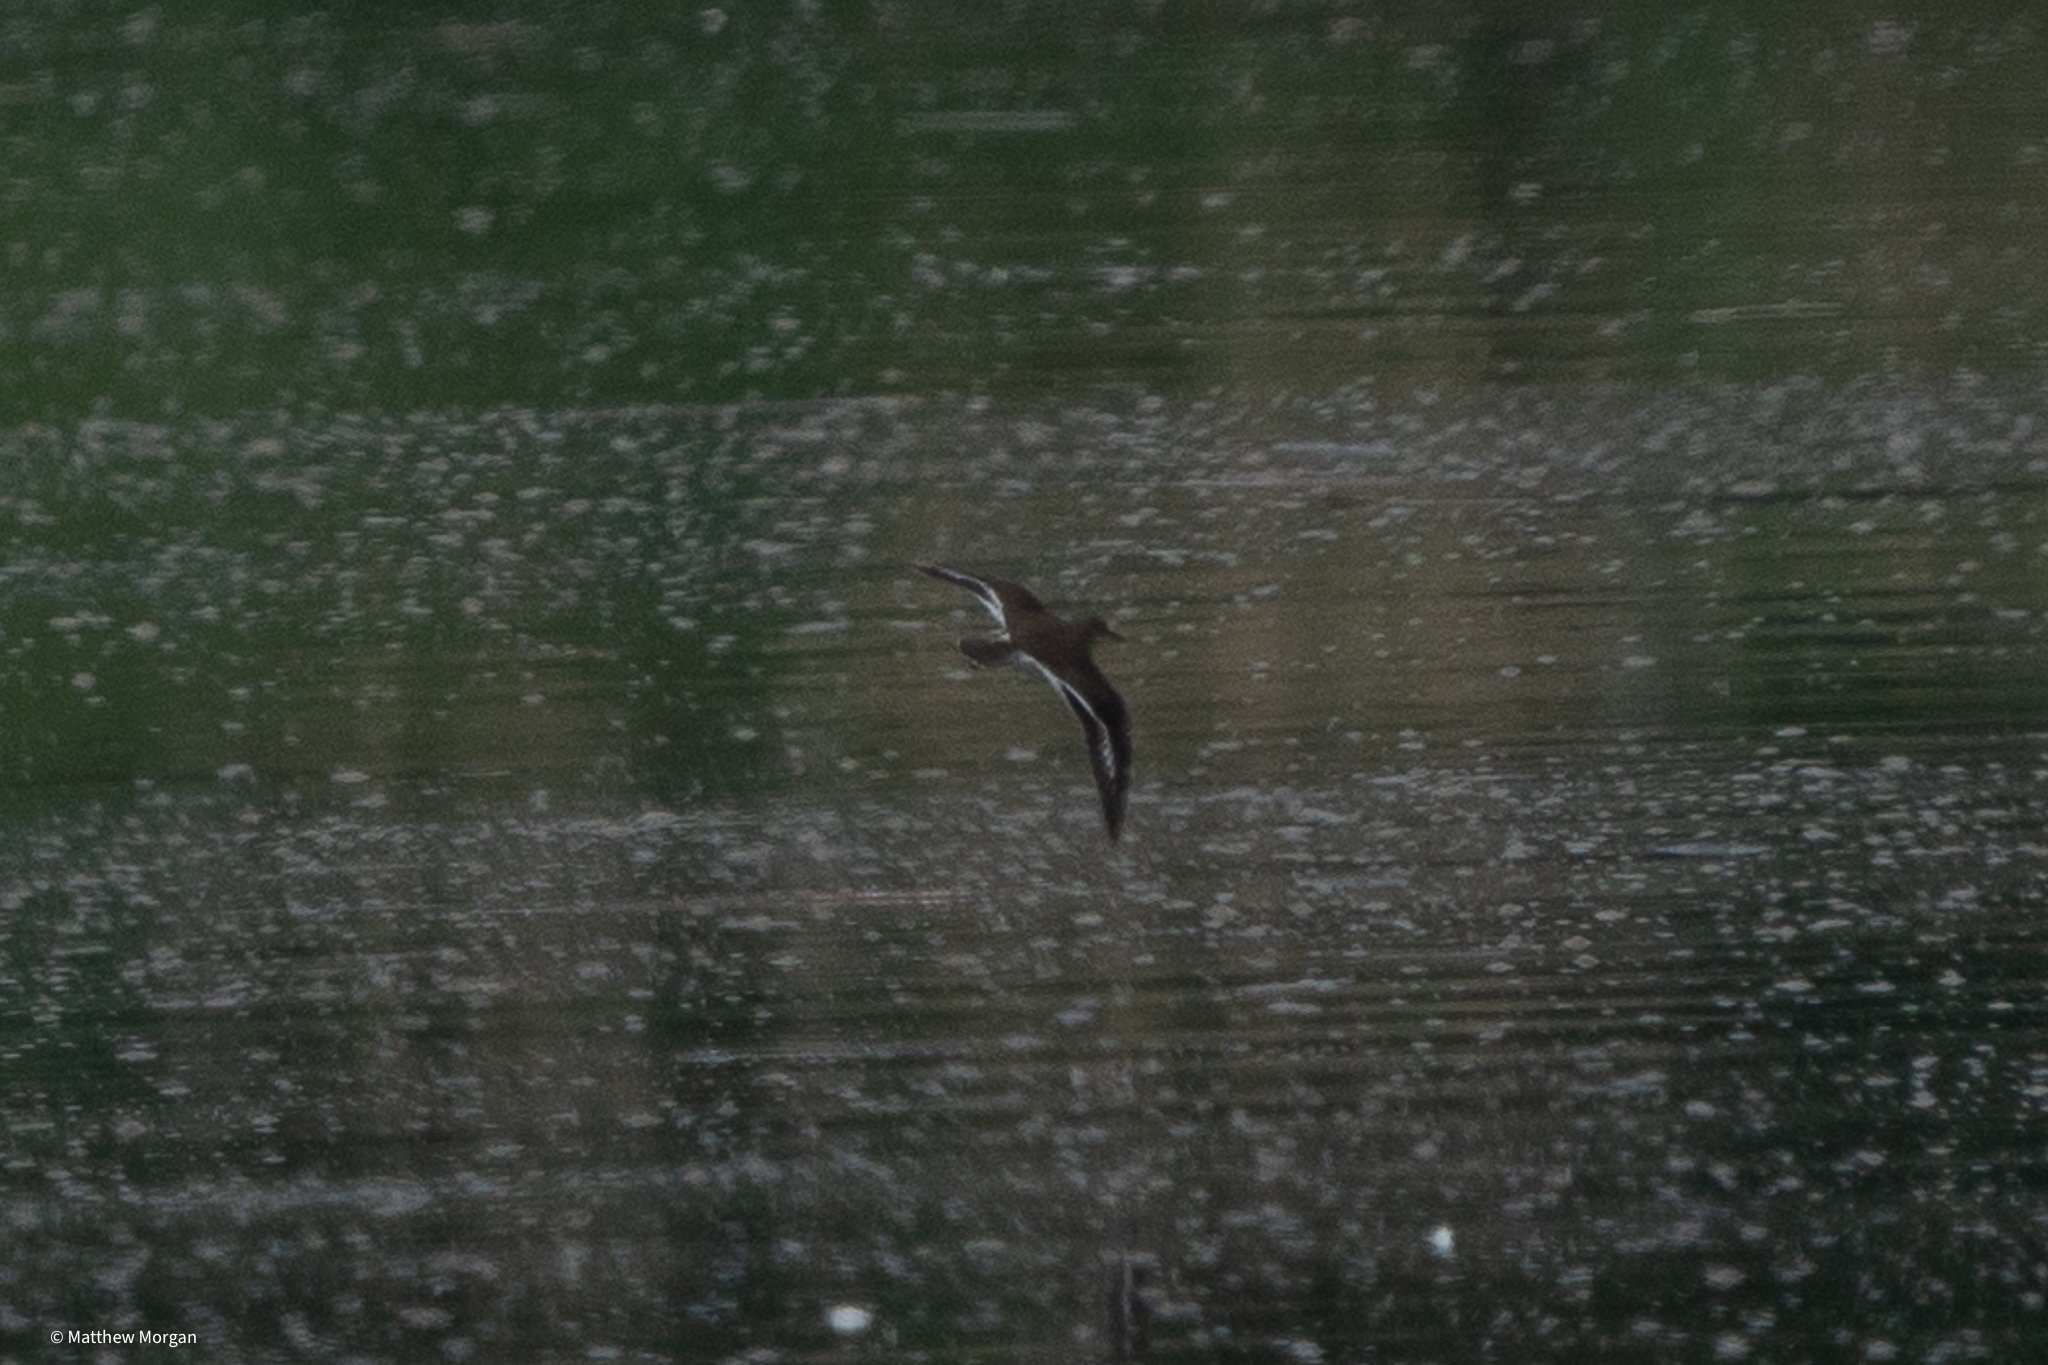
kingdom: Animalia
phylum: Chordata
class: Aves
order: Charadriiformes
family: Scolopacidae
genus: Actitis
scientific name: Actitis hypoleucos
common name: Common sandpiper
